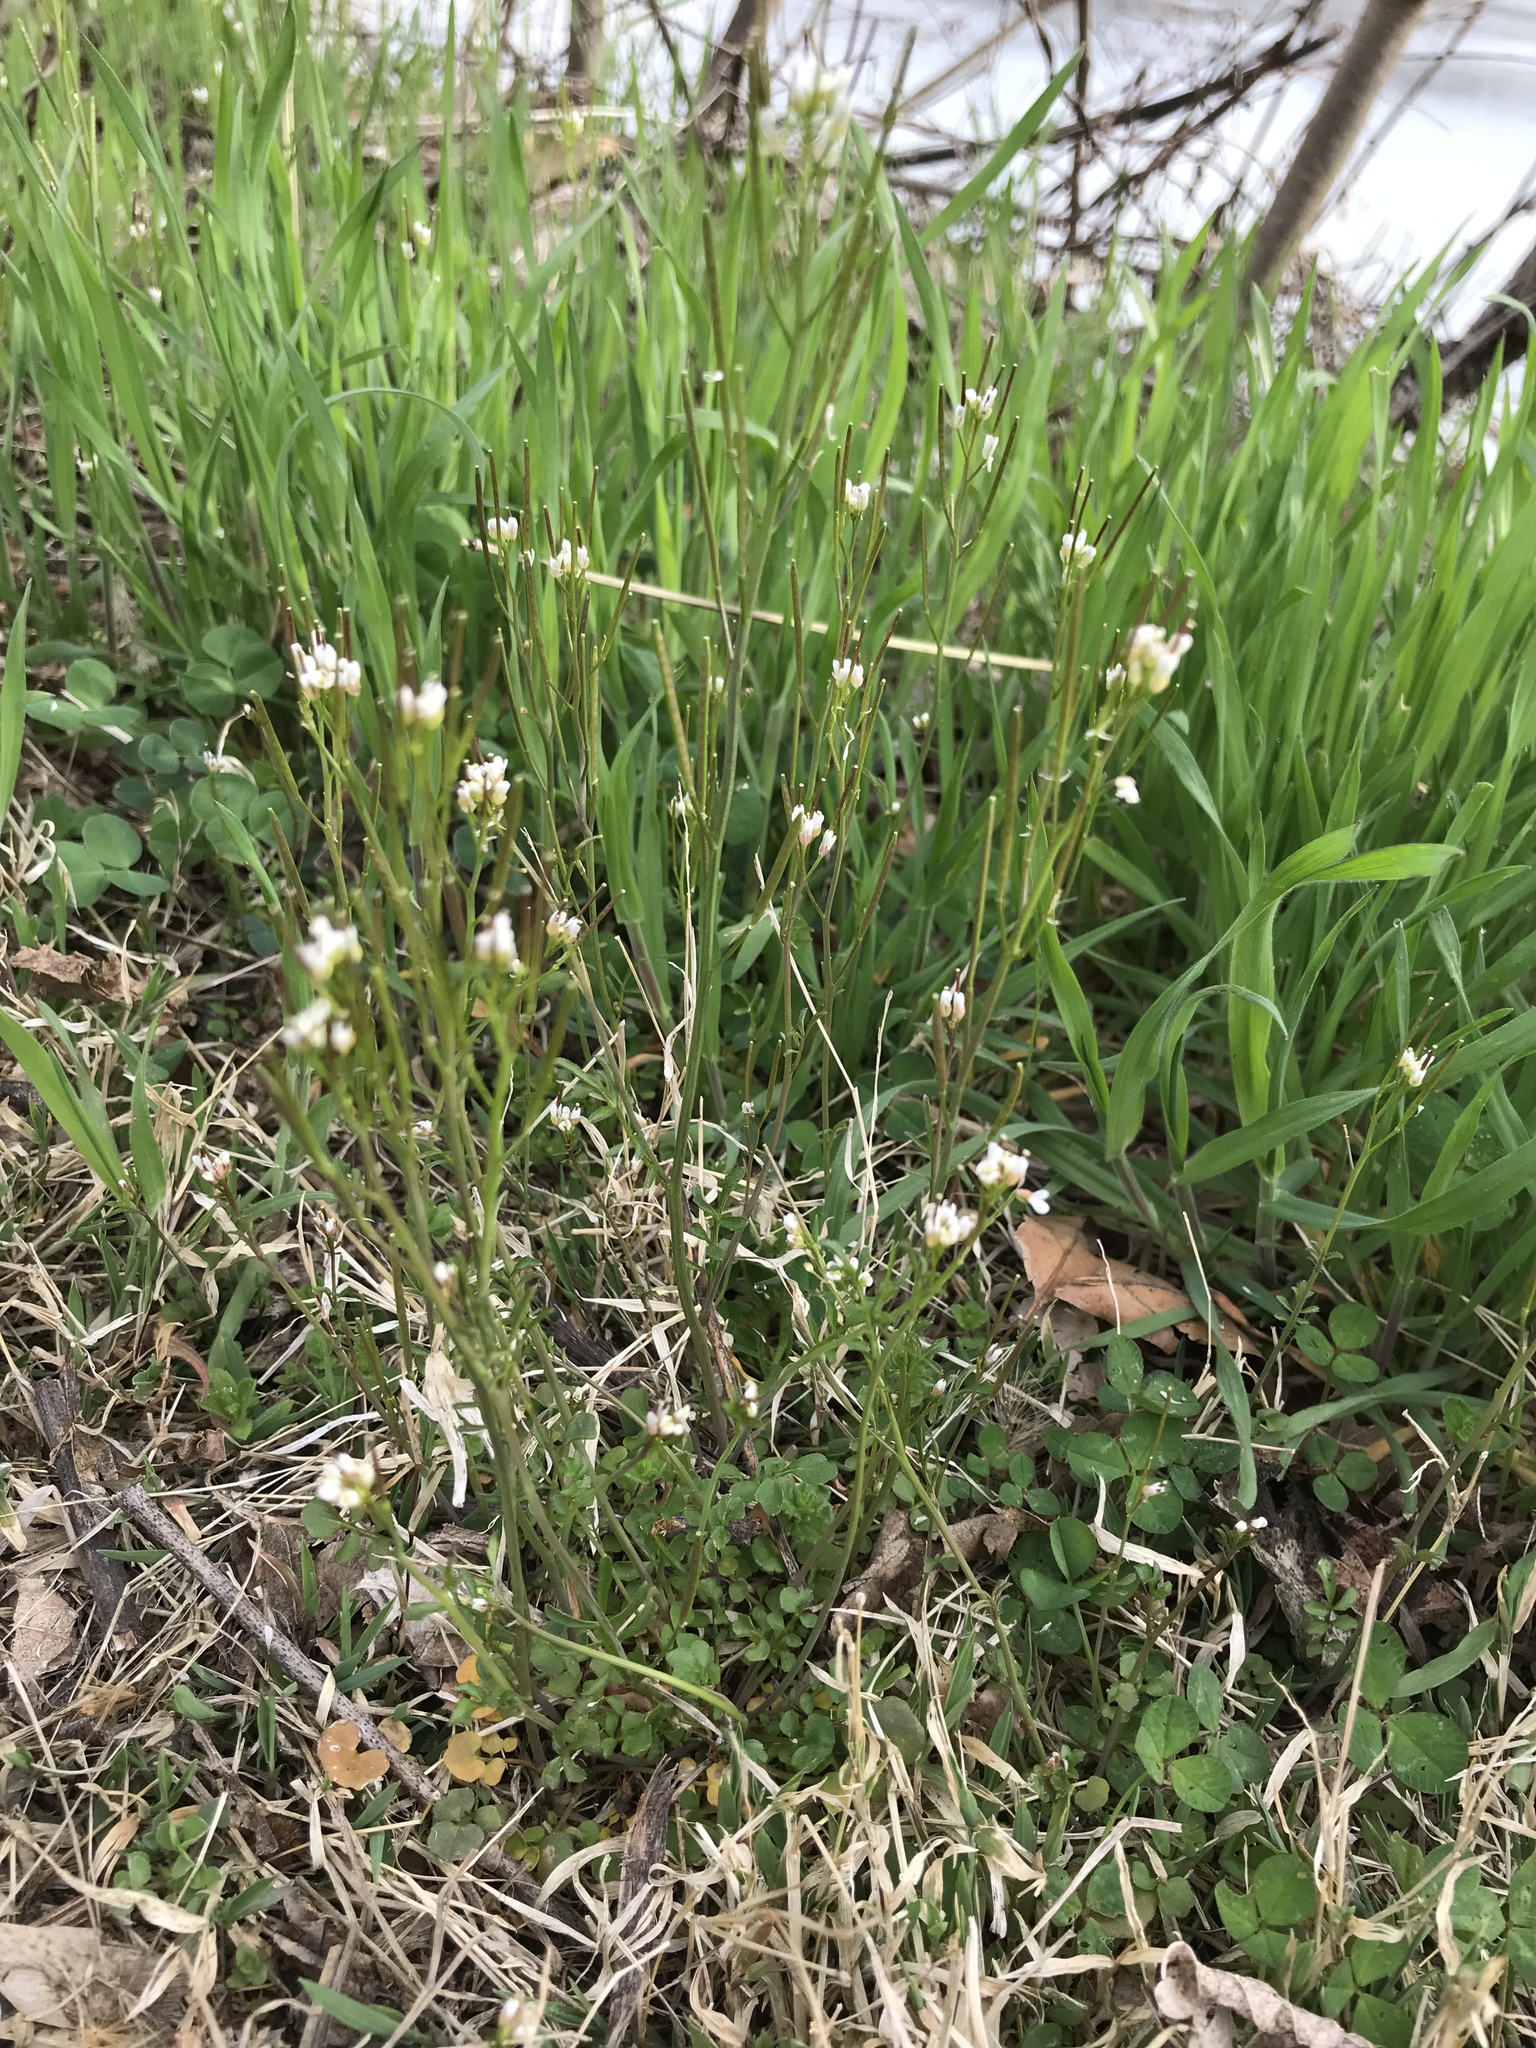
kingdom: Plantae
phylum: Tracheophyta
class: Magnoliopsida
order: Brassicales
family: Brassicaceae
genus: Cardamine
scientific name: Cardamine hirsuta
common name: Hairy bittercress
